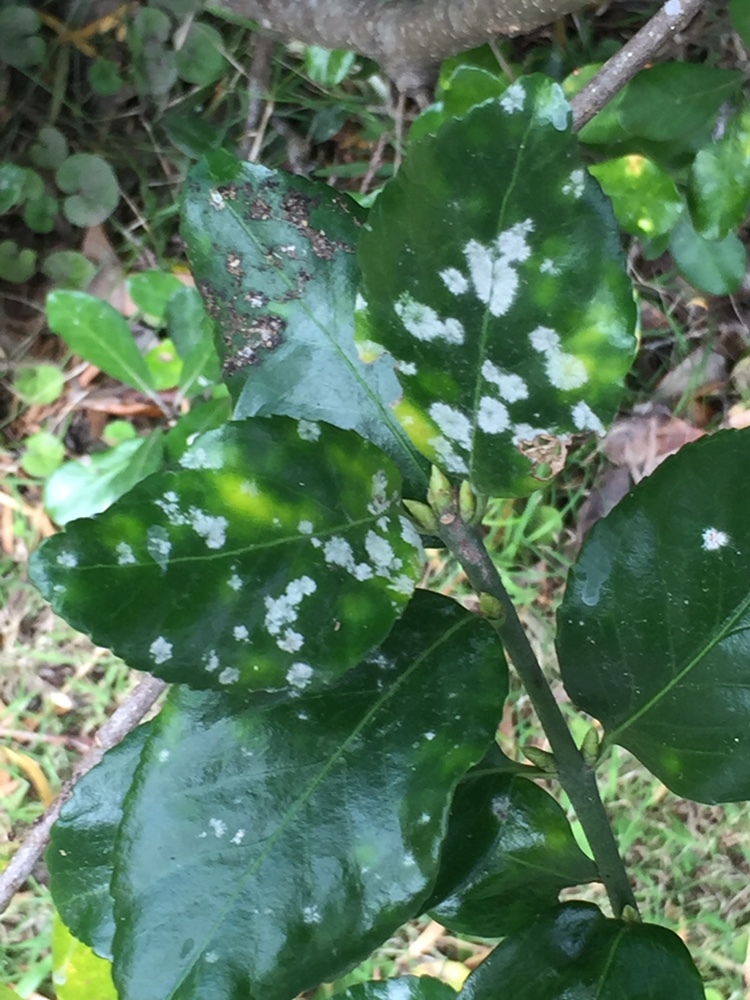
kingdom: Fungi
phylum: Ascomycota
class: Leotiomycetes
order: Helotiales
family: Erysiphaceae
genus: Erysiphe
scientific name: Erysiphe euonymicola
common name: Spindletree mildew
